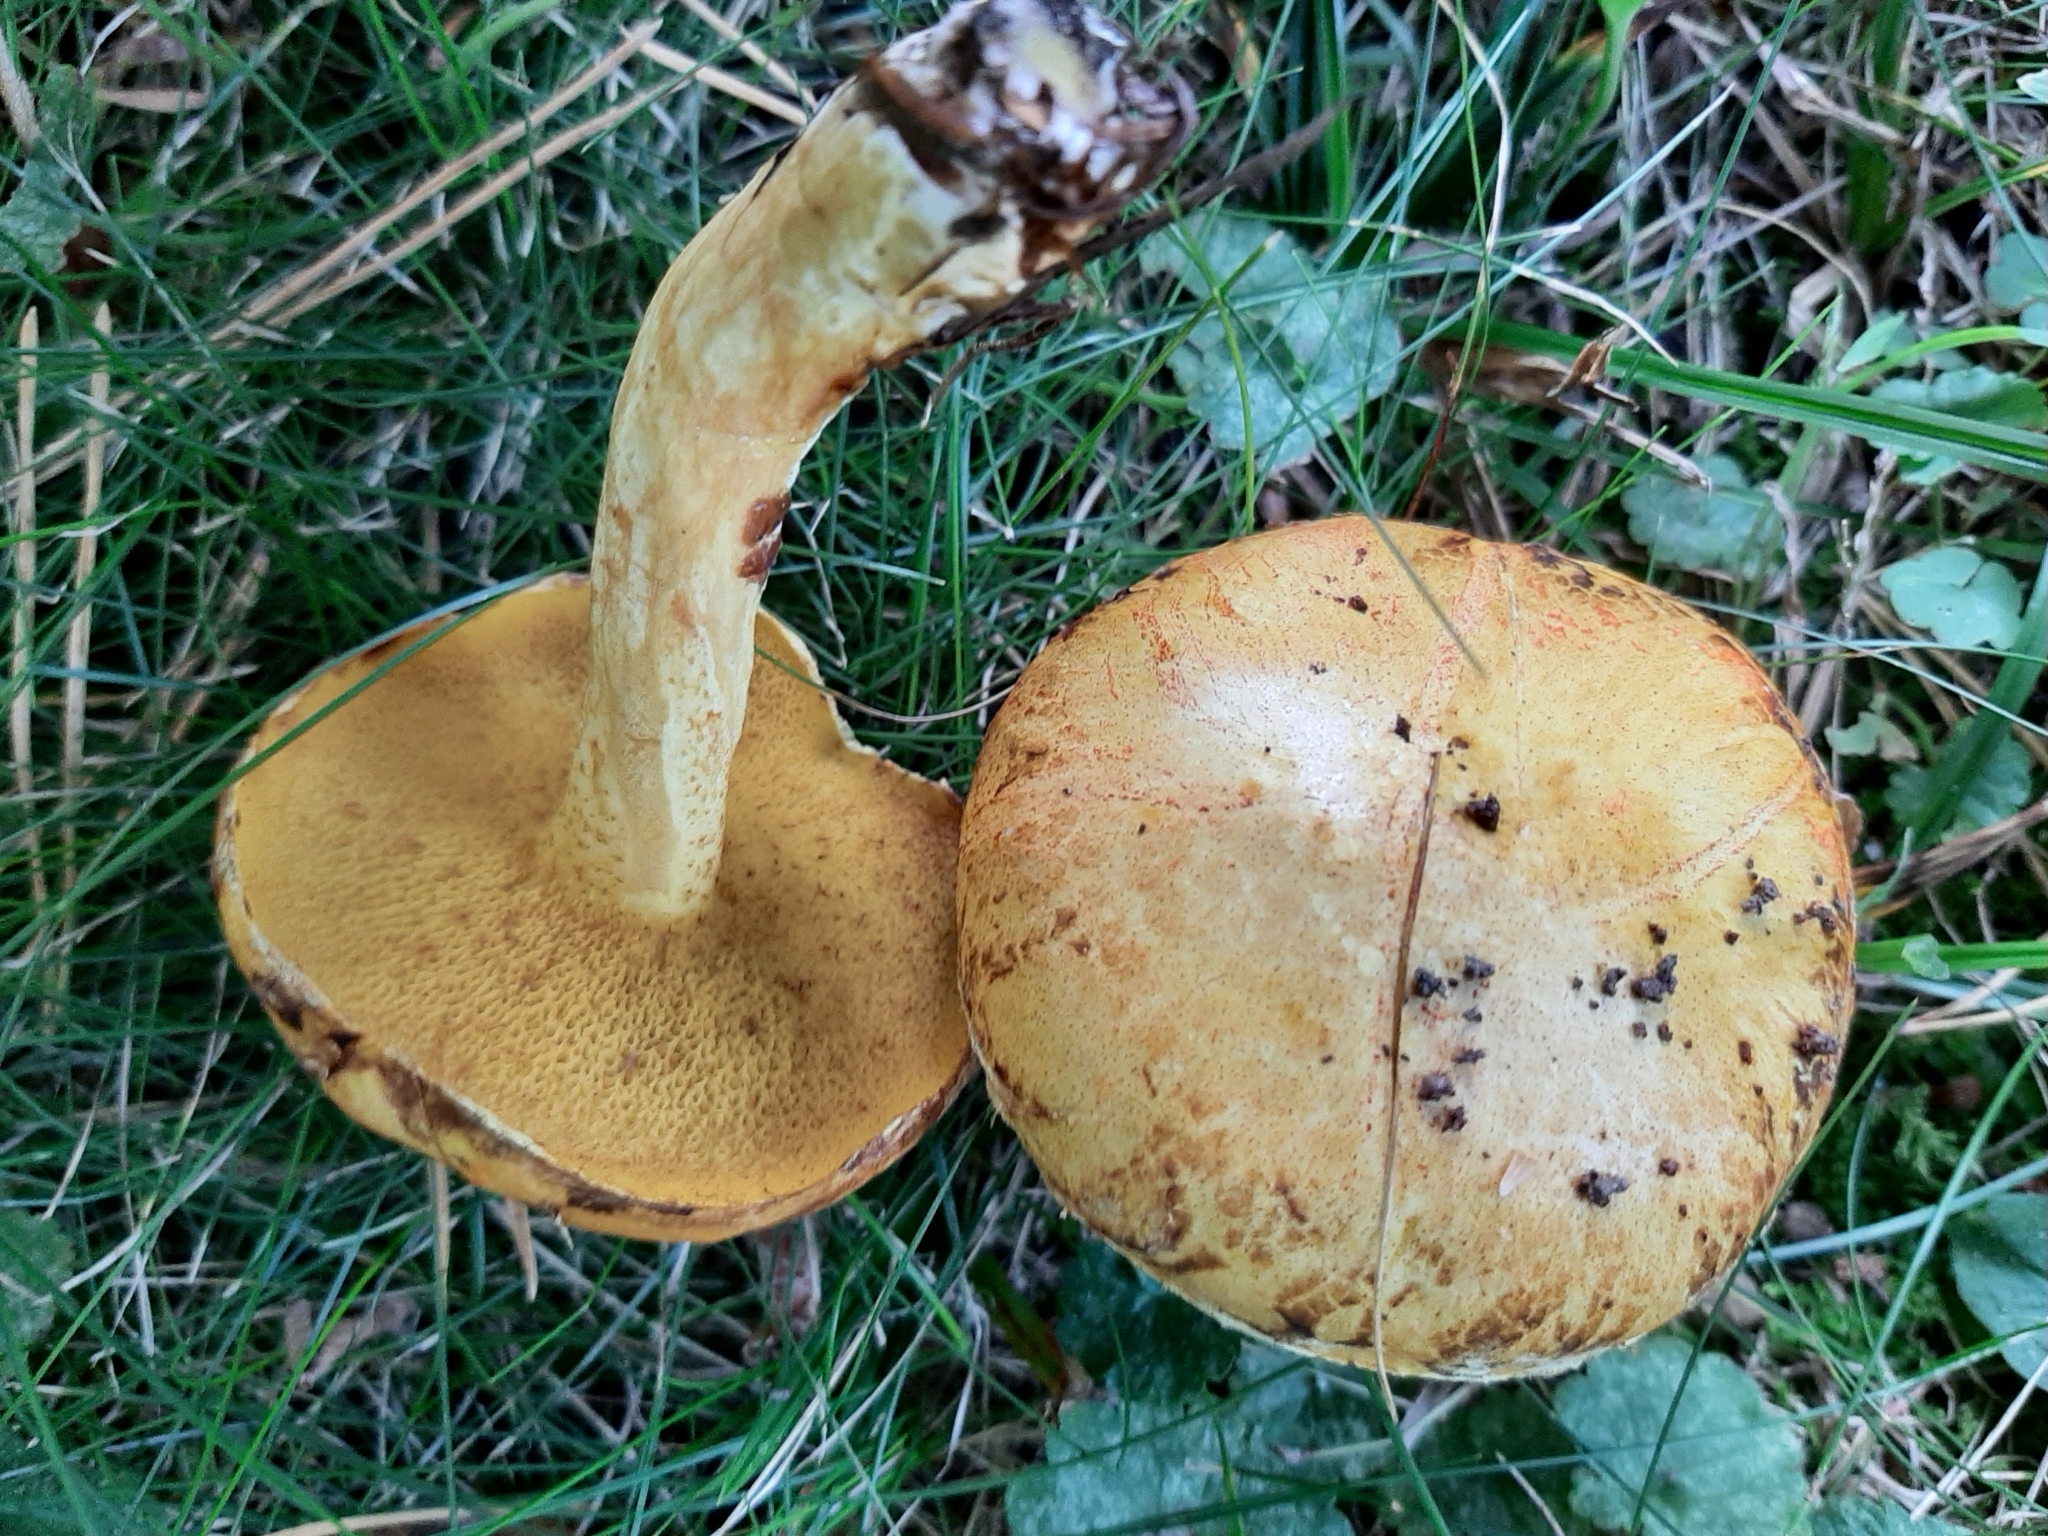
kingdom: Fungi
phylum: Basidiomycota
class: Agaricomycetes
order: Boletales
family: Suillaceae
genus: Suillus
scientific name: Suillus americanus
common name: Chicken fat mushroom
